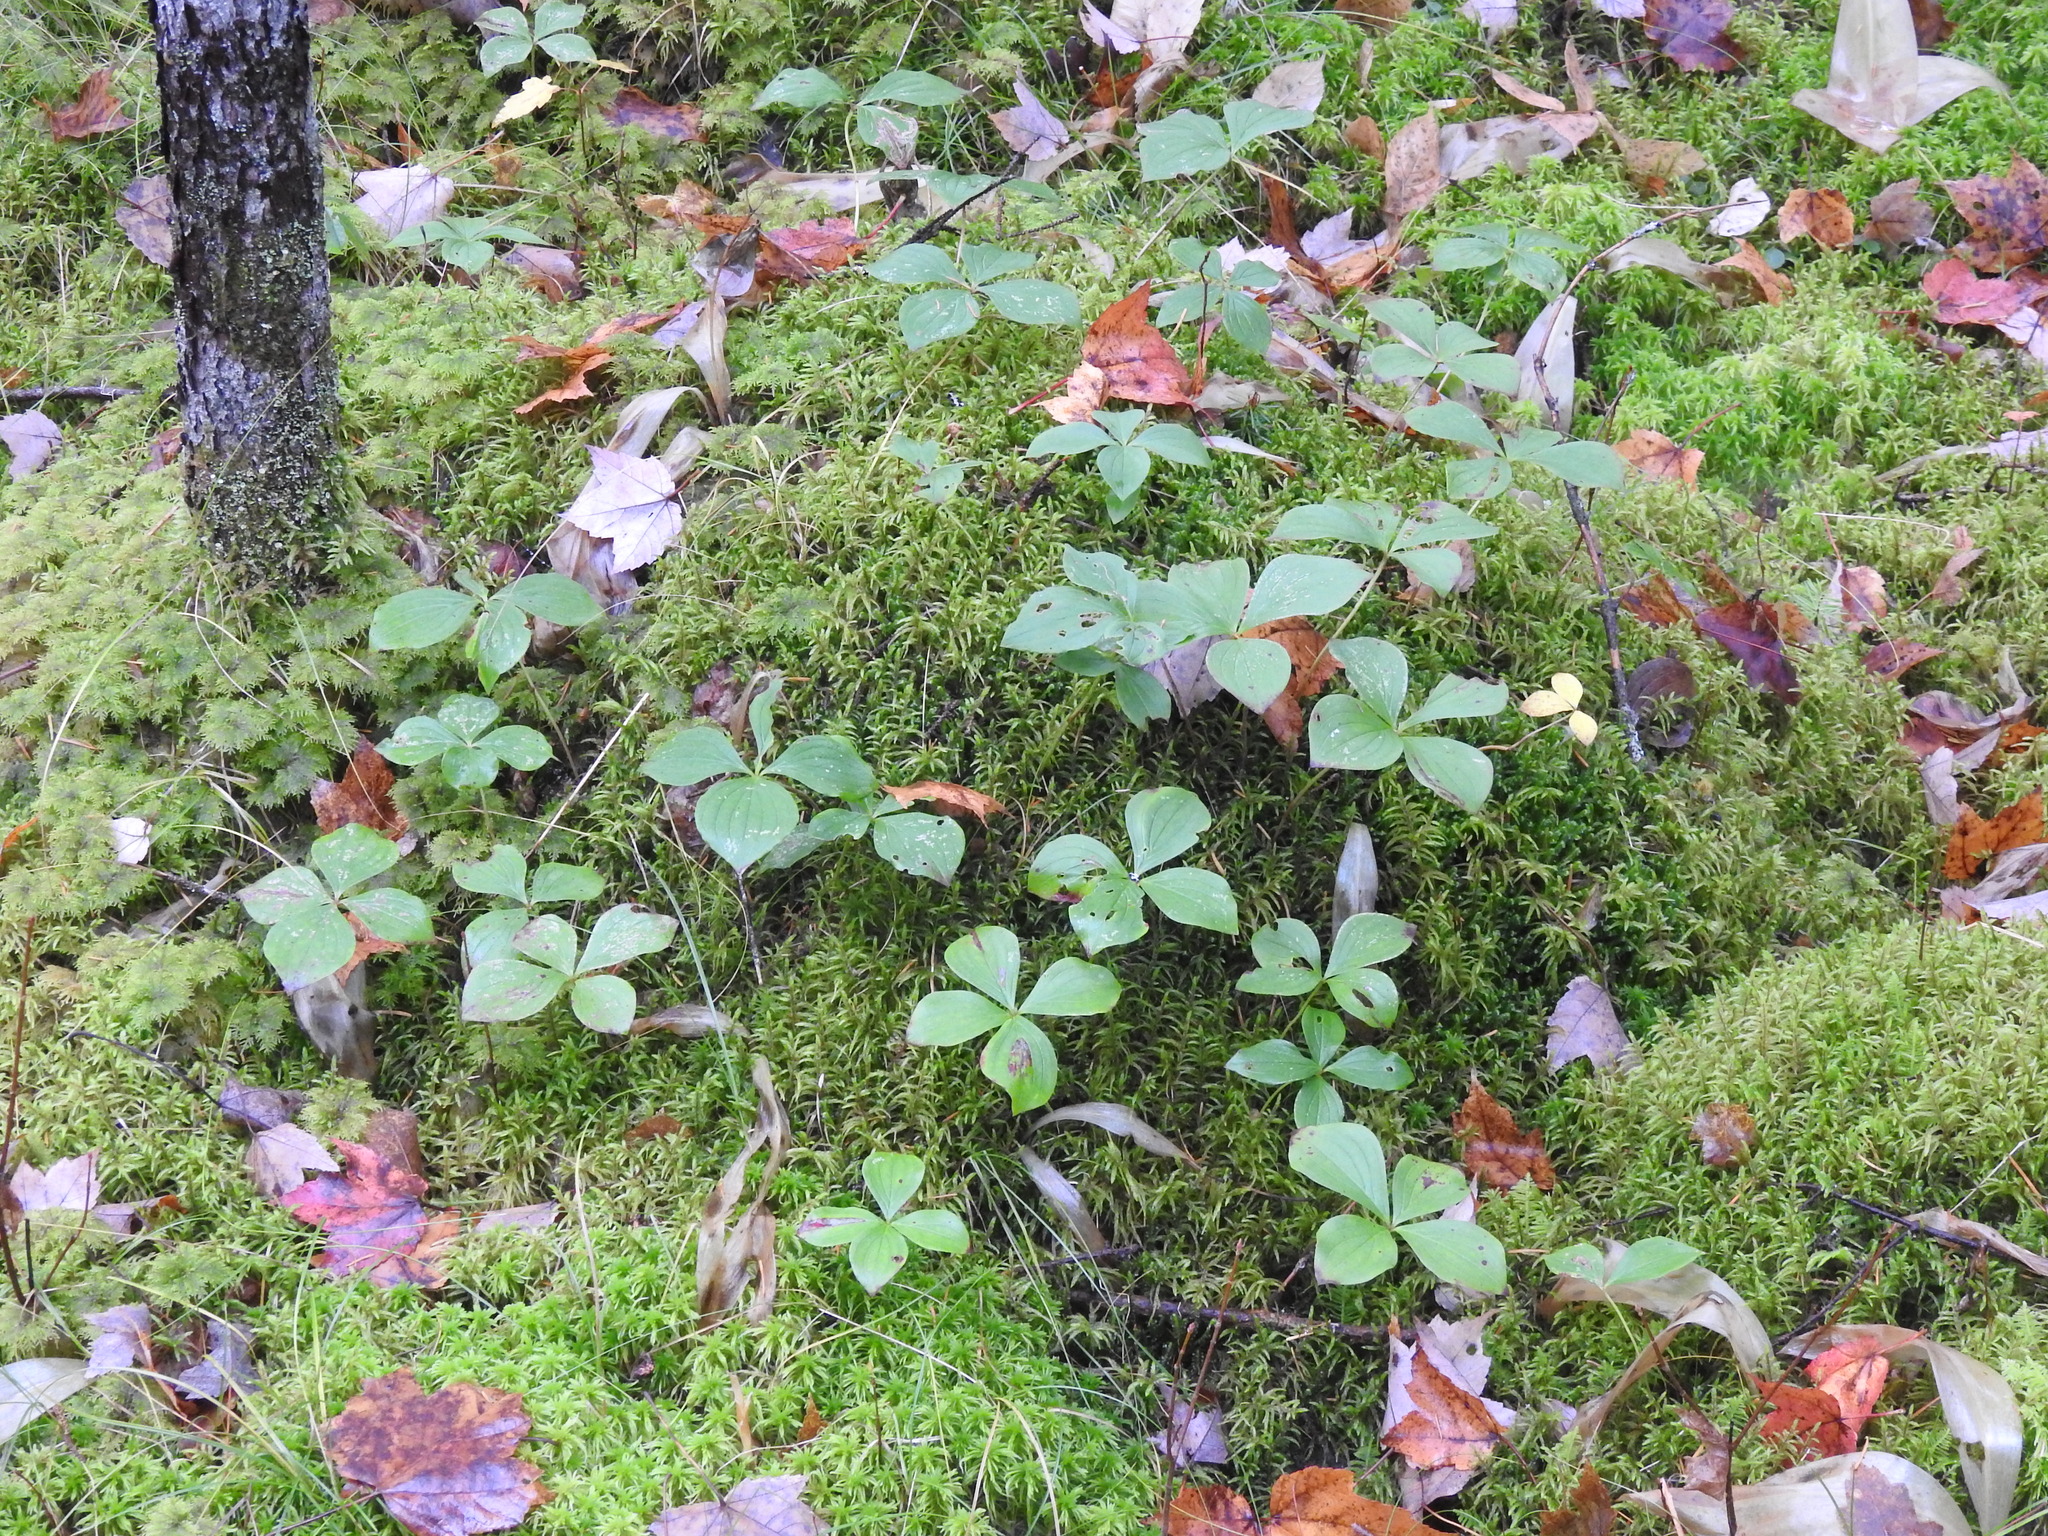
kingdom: Plantae
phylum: Tracheophyta
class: Magnoliopsida
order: Cornales
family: Cornaceae
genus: Cornus
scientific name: Cornus canadensis
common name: Creeping dogwood
